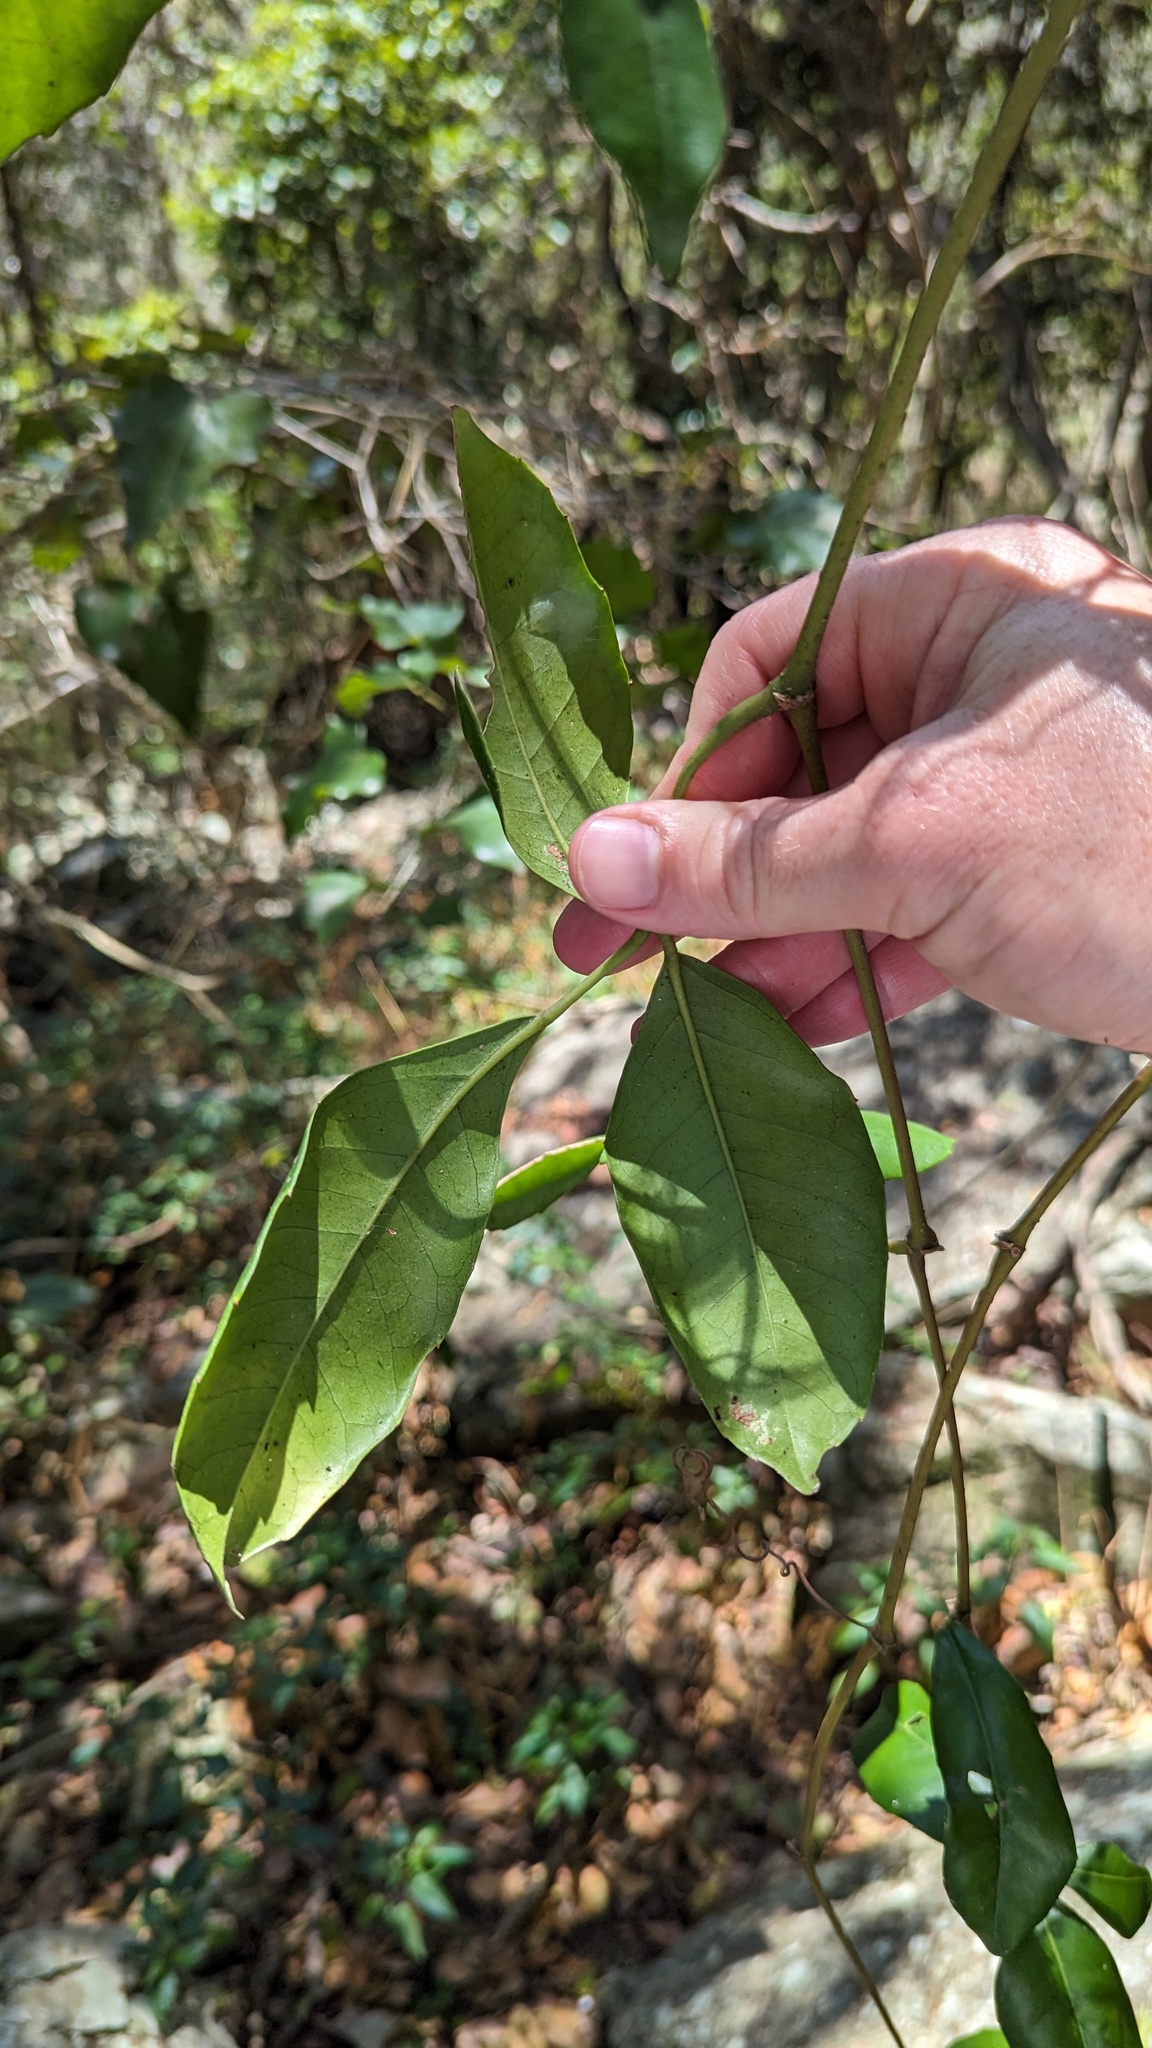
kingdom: Plantae
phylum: Tracheophyta
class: Magnoliopsida
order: Vitales
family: Vitaceae
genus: Tetrastigma
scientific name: Tetrastigma nitens
